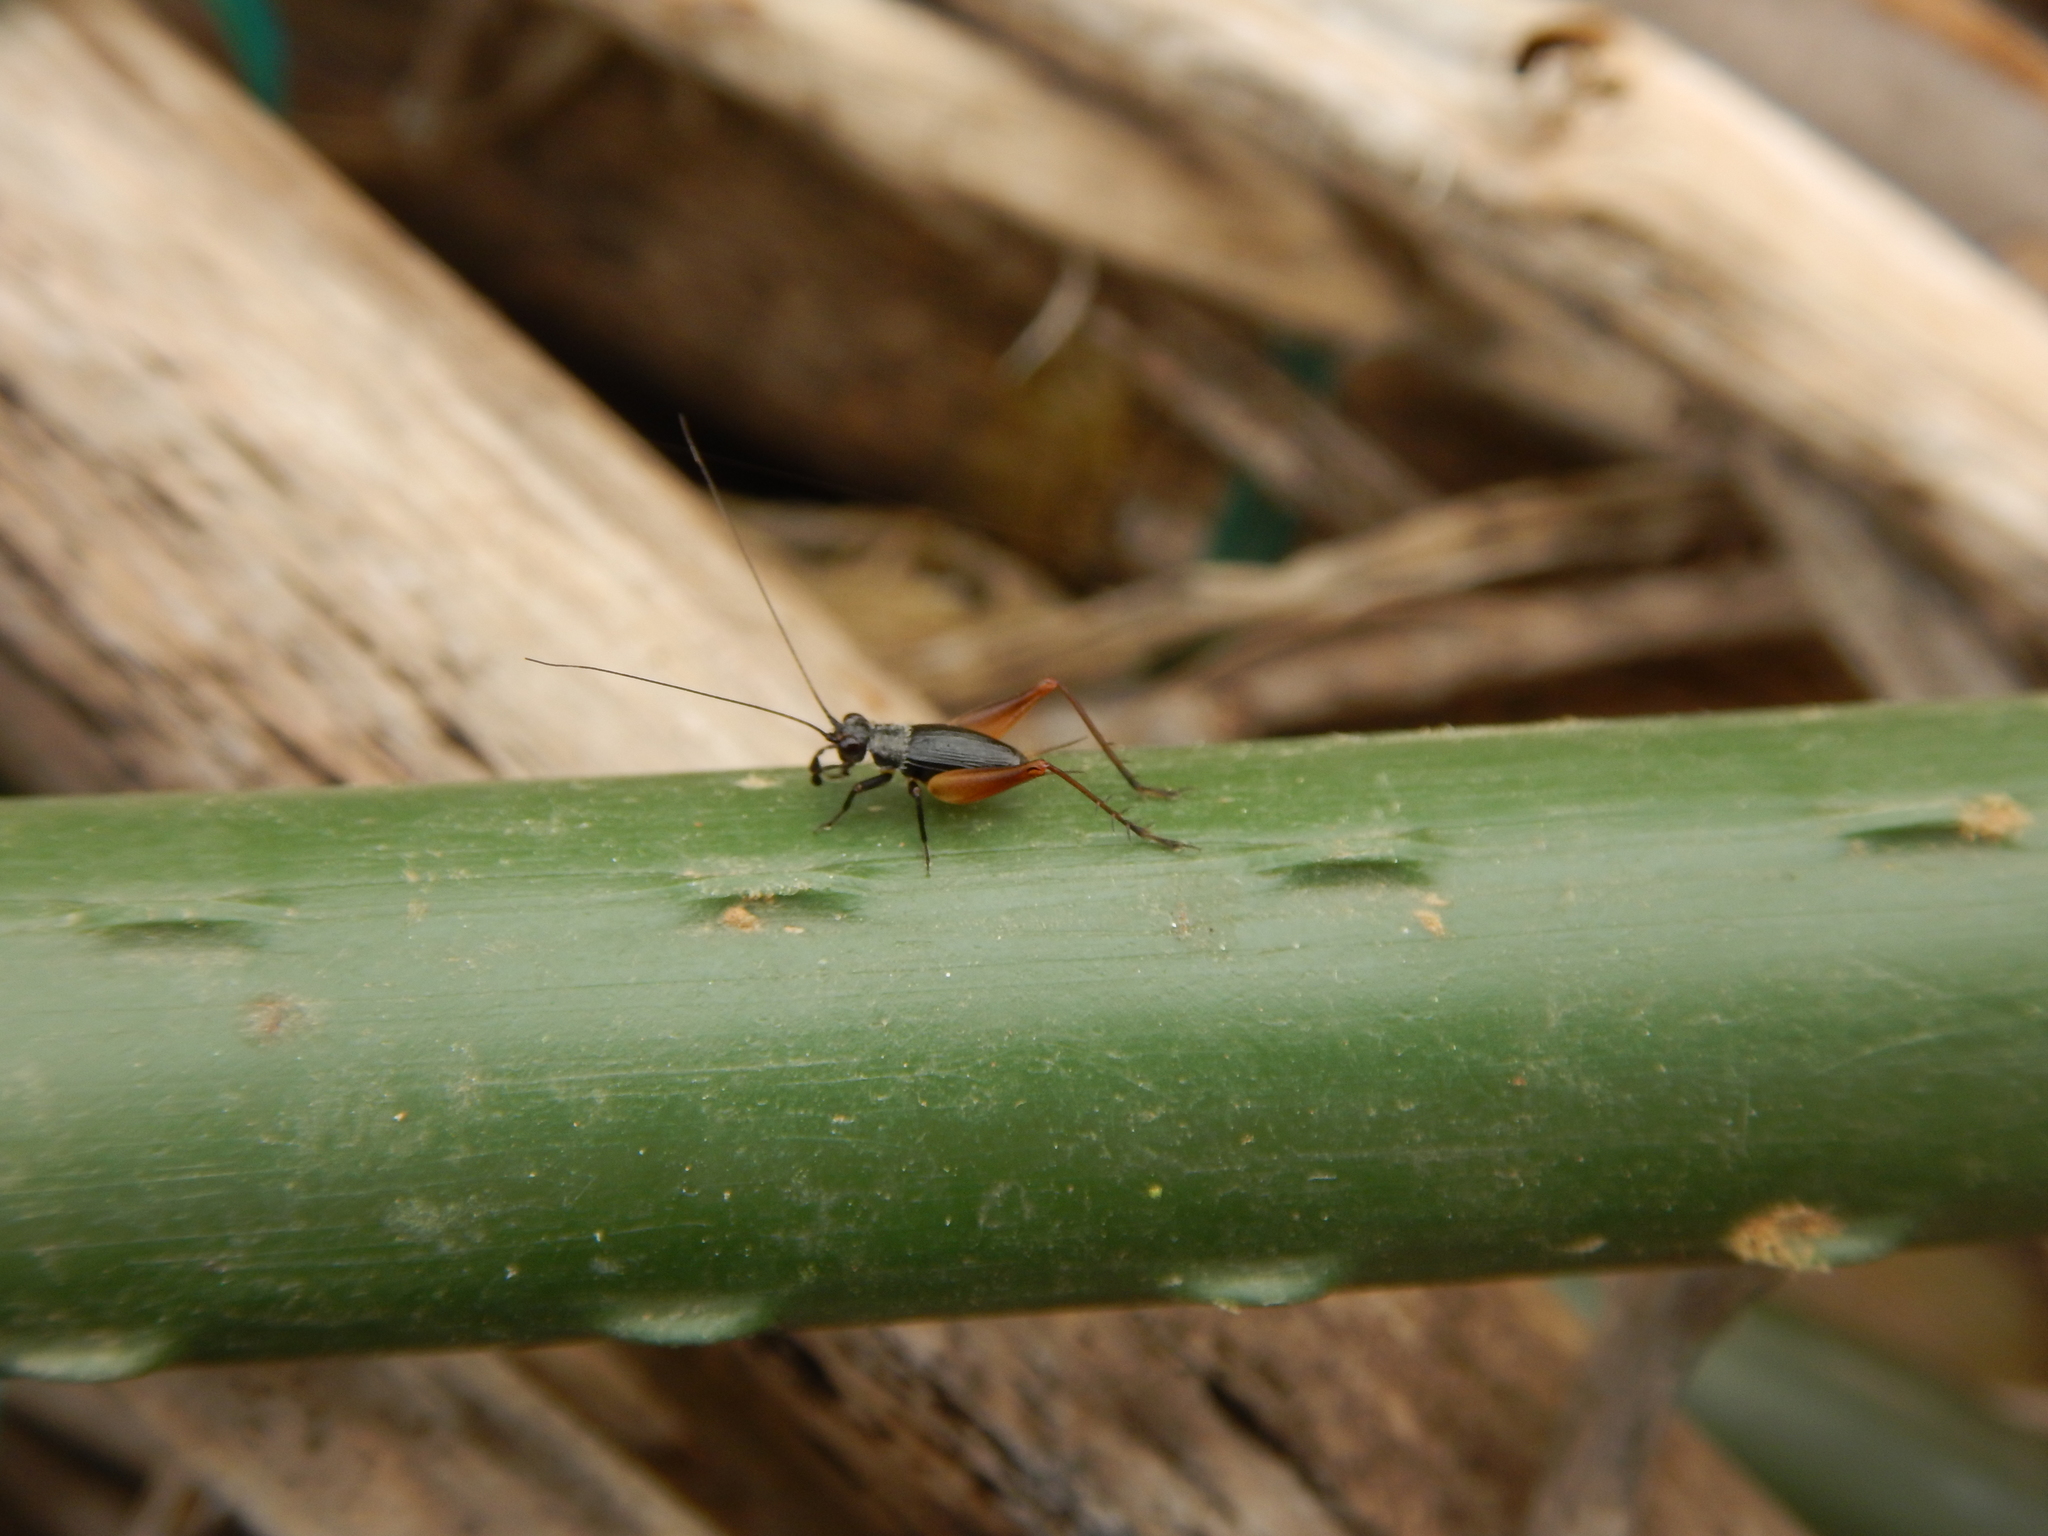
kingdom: Animalia
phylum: Arthropoda
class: Insecta
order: Orthoptera
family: Trigonidiidae
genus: Trigonidium
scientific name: Trigonidium cicindeloides
